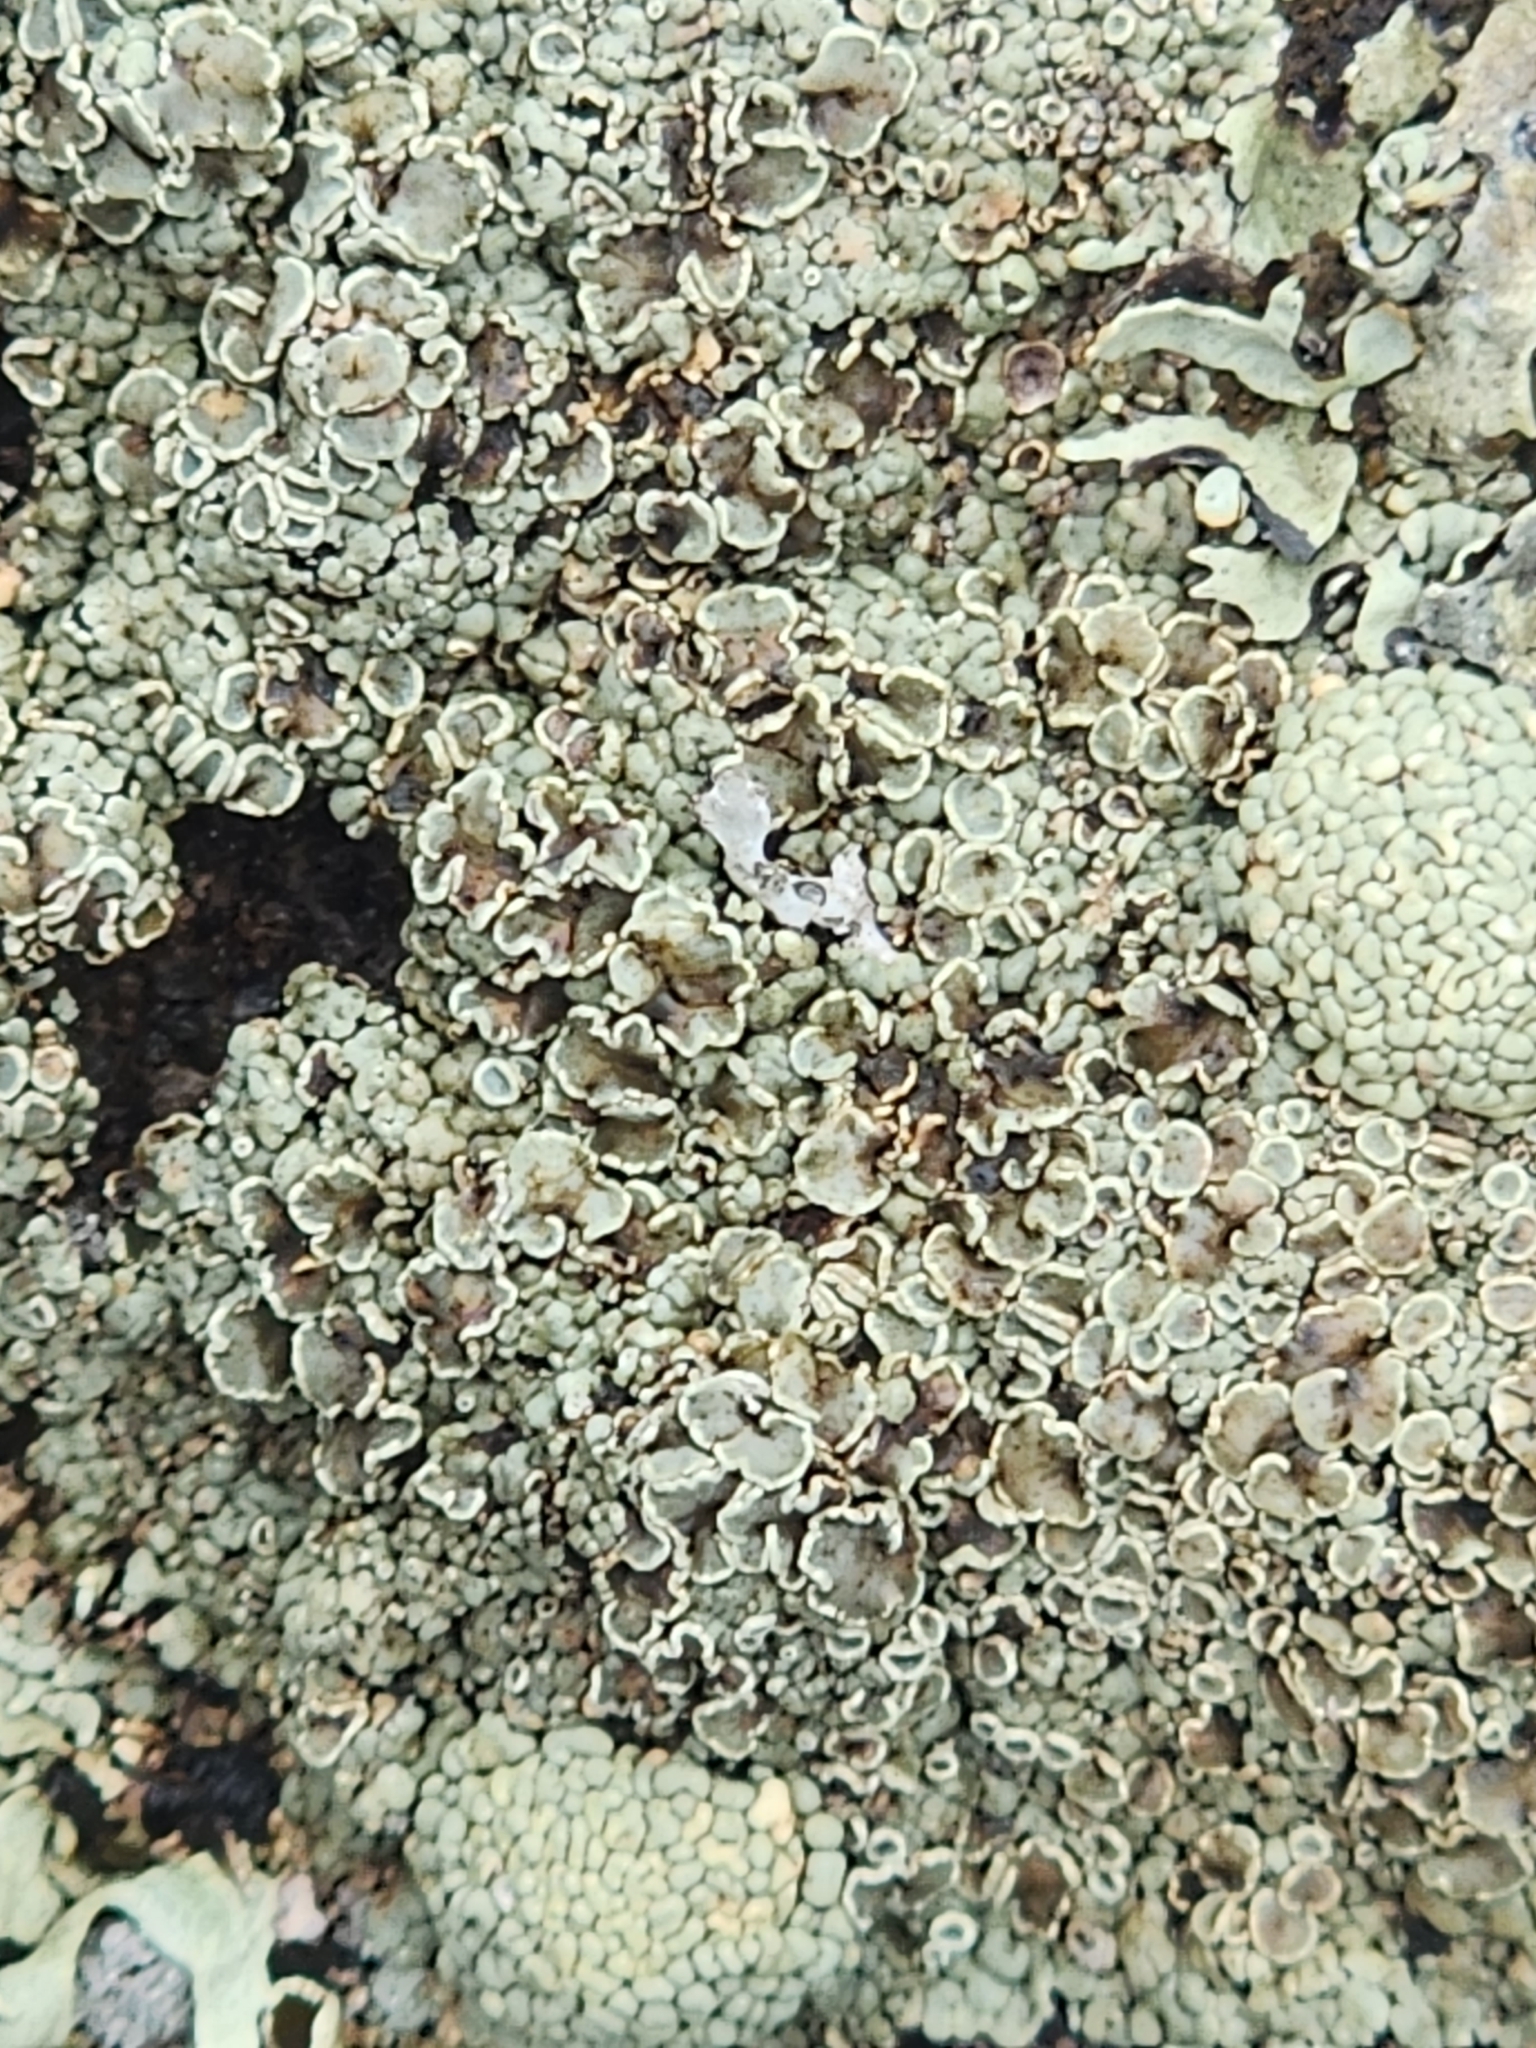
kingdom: Fungi
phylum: Ascomycota
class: Lecanoromycetes
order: Lecanorales
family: Lecanoraceae
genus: Omphalodina
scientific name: Omphalodina opiniconensis
